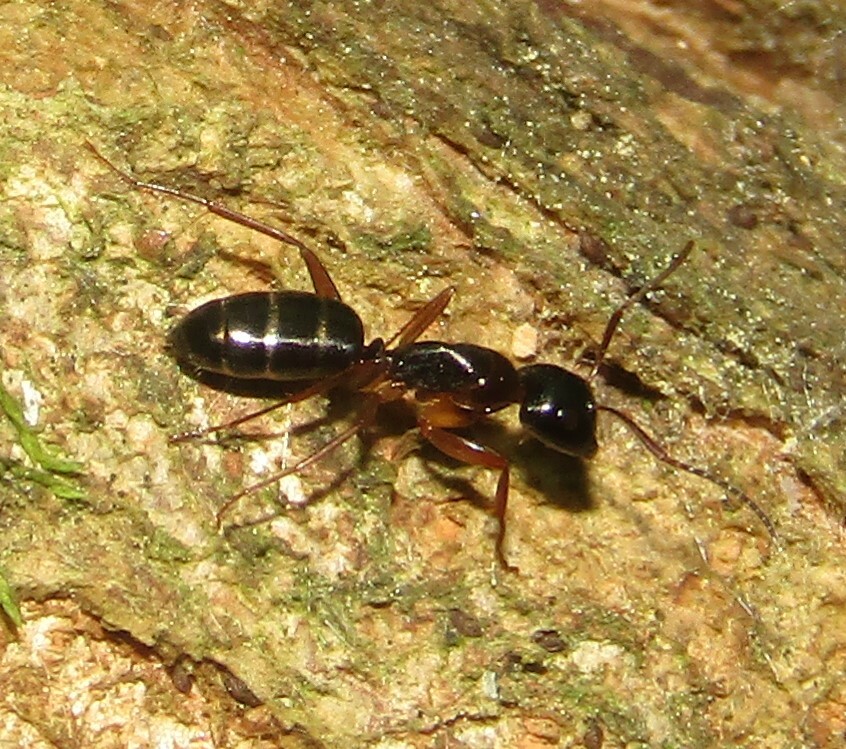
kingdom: Animalia
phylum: Arthropoda
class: Insecta
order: Hymenoptera
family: Formicidae
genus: Camponotus
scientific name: Camponotus fallax
